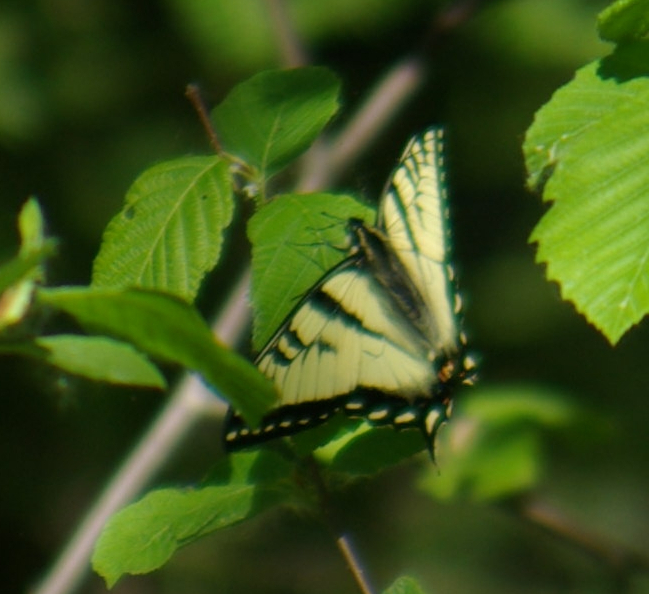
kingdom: Animalia
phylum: Arthropoda
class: Insecta
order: Lepidoptera
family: Papilionidae
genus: Papilio
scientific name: Papilio canadensis
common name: Canadian tiger swallowtail
